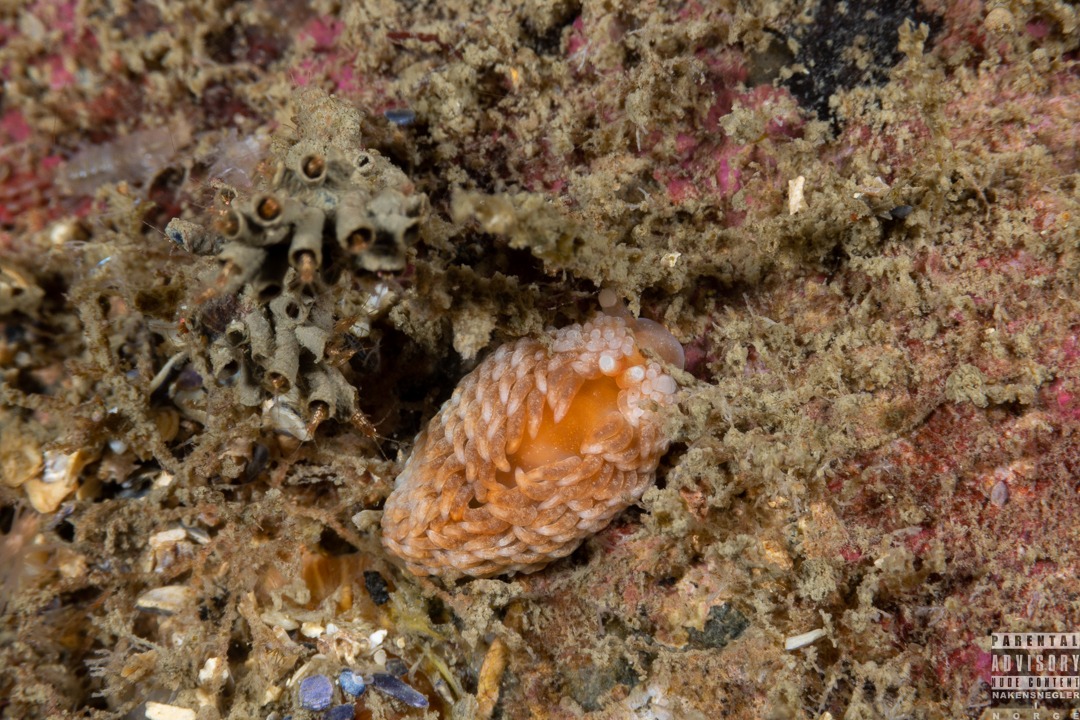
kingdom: Animalia
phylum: Mollusca
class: Gastropoda
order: Nudibranchia
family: Aeolidiidae
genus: Aeolidiella
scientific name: Aeolidiella glauca
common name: Orange-brown aeolid
